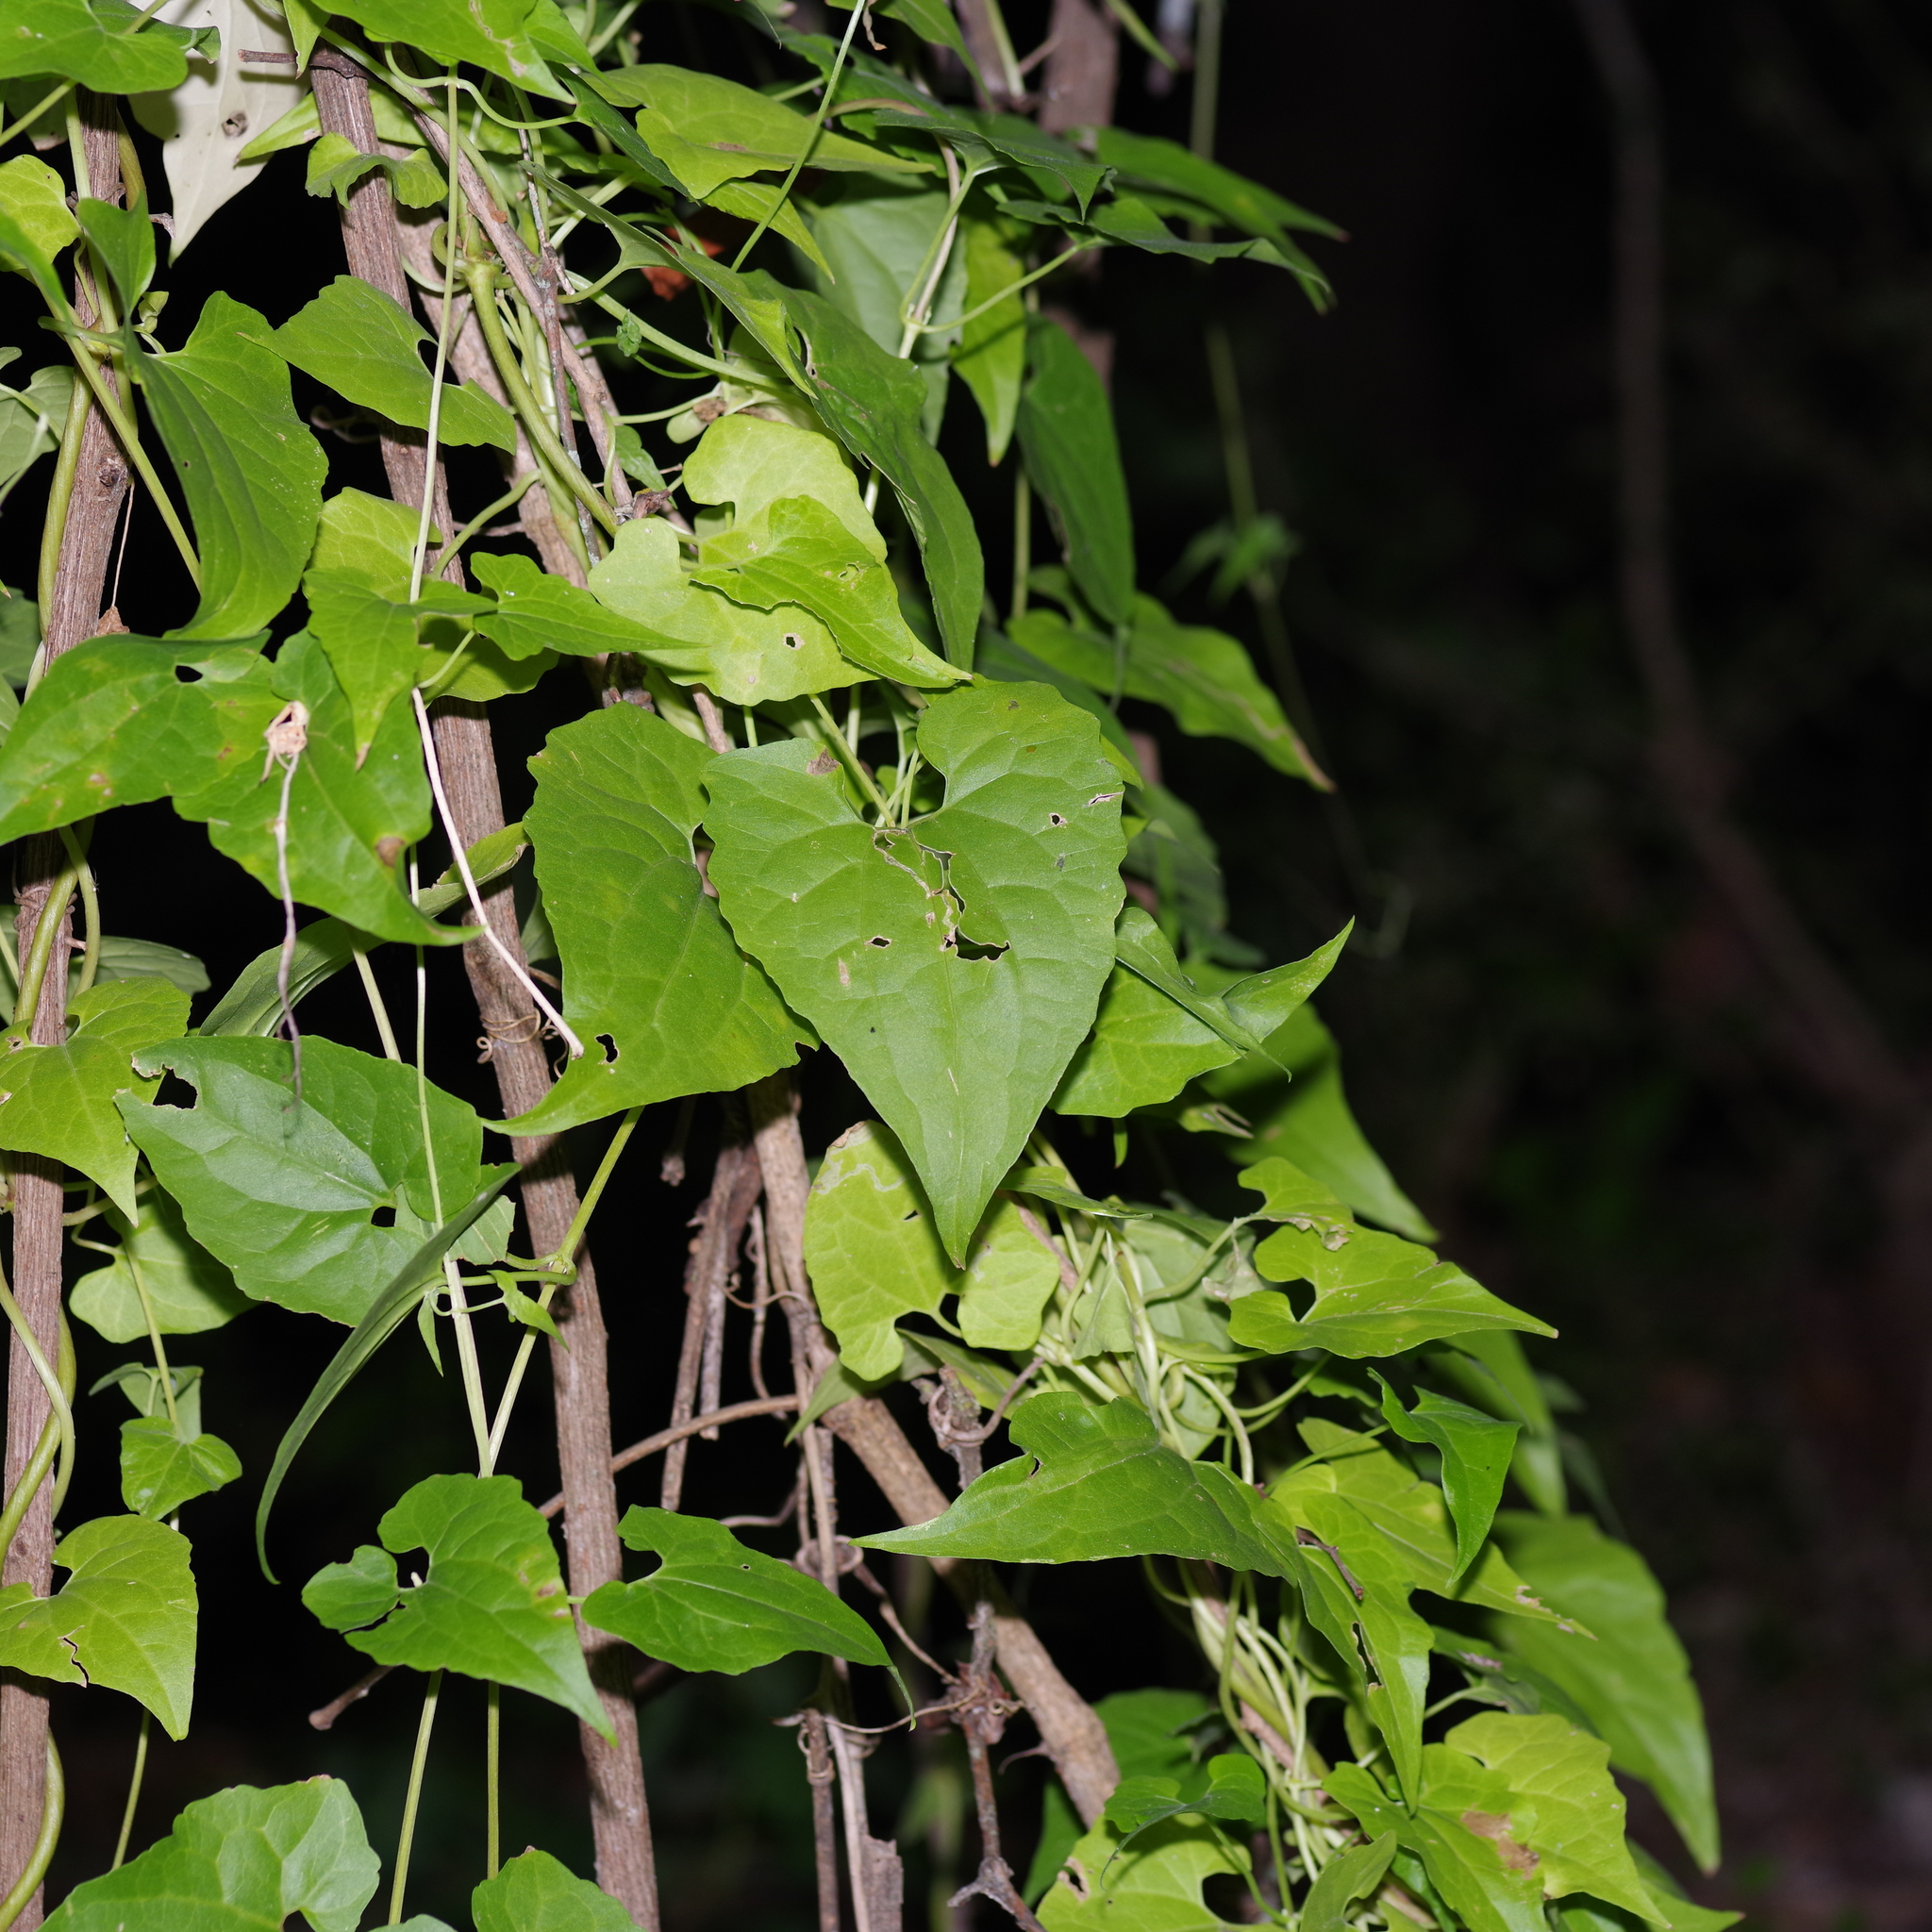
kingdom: Plantae
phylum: Tracheophyta
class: Magnoliopsida
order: Asterales
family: Asteraceae
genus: Mikania
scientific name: Mikania scandens
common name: Climbing hempvine
